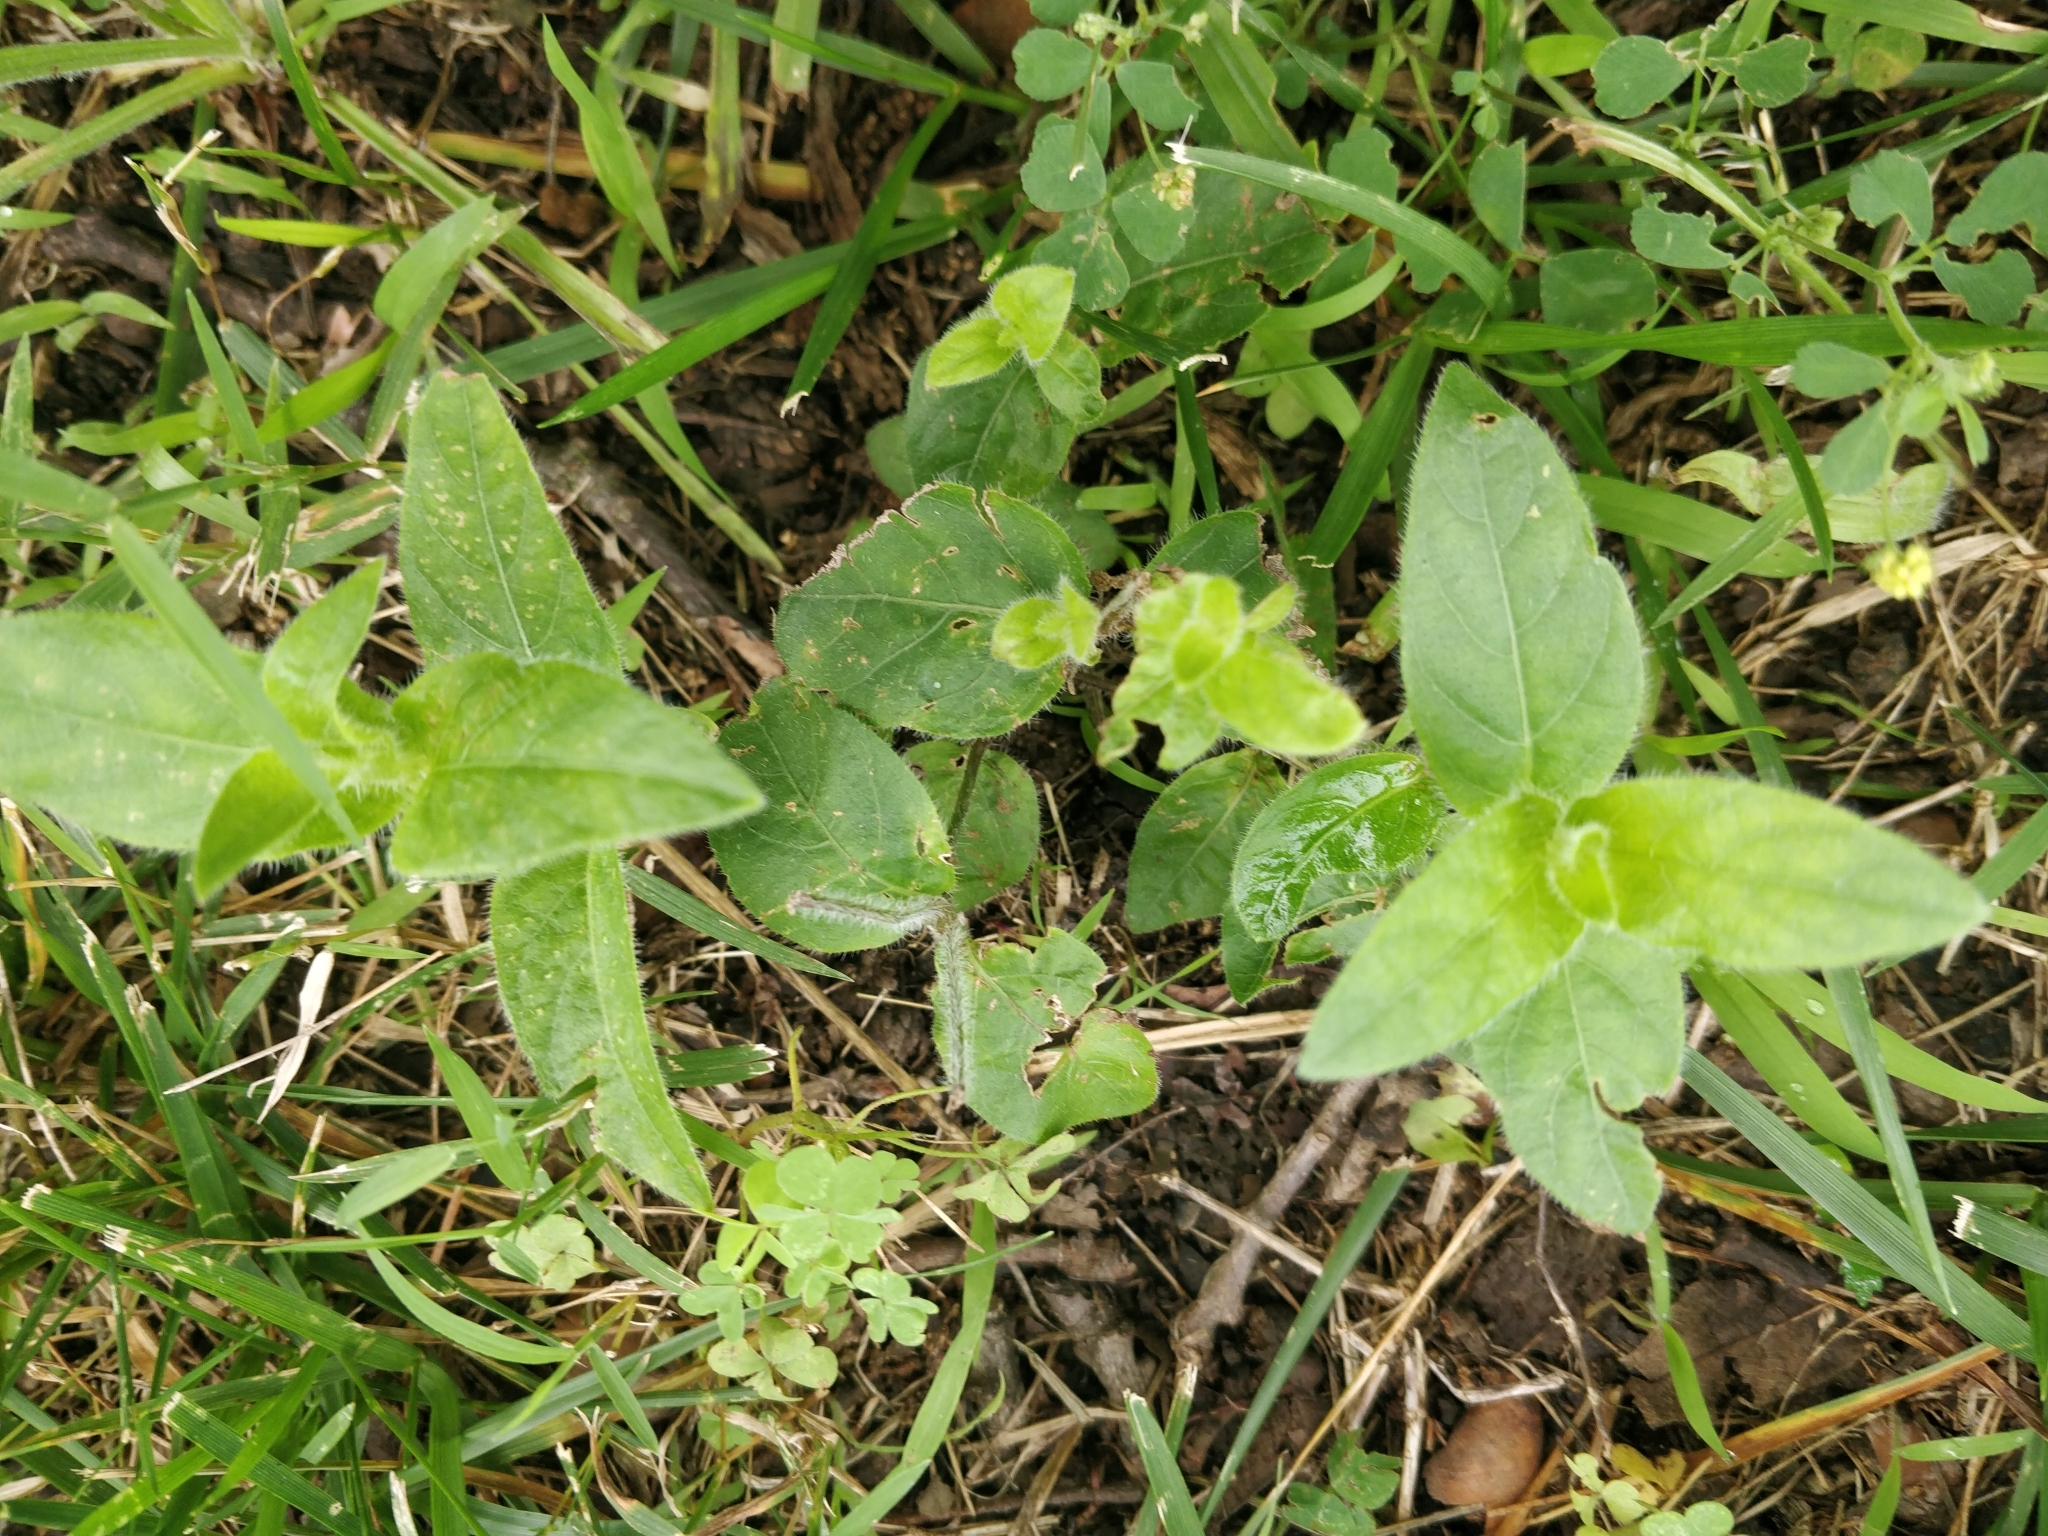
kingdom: Plantae
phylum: Tracheophyta
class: Magnoliopsida
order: Lamiales
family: Acanthaceae
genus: Ruellia
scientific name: Ruellia humilis
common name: Fringe-leaf ruellia
